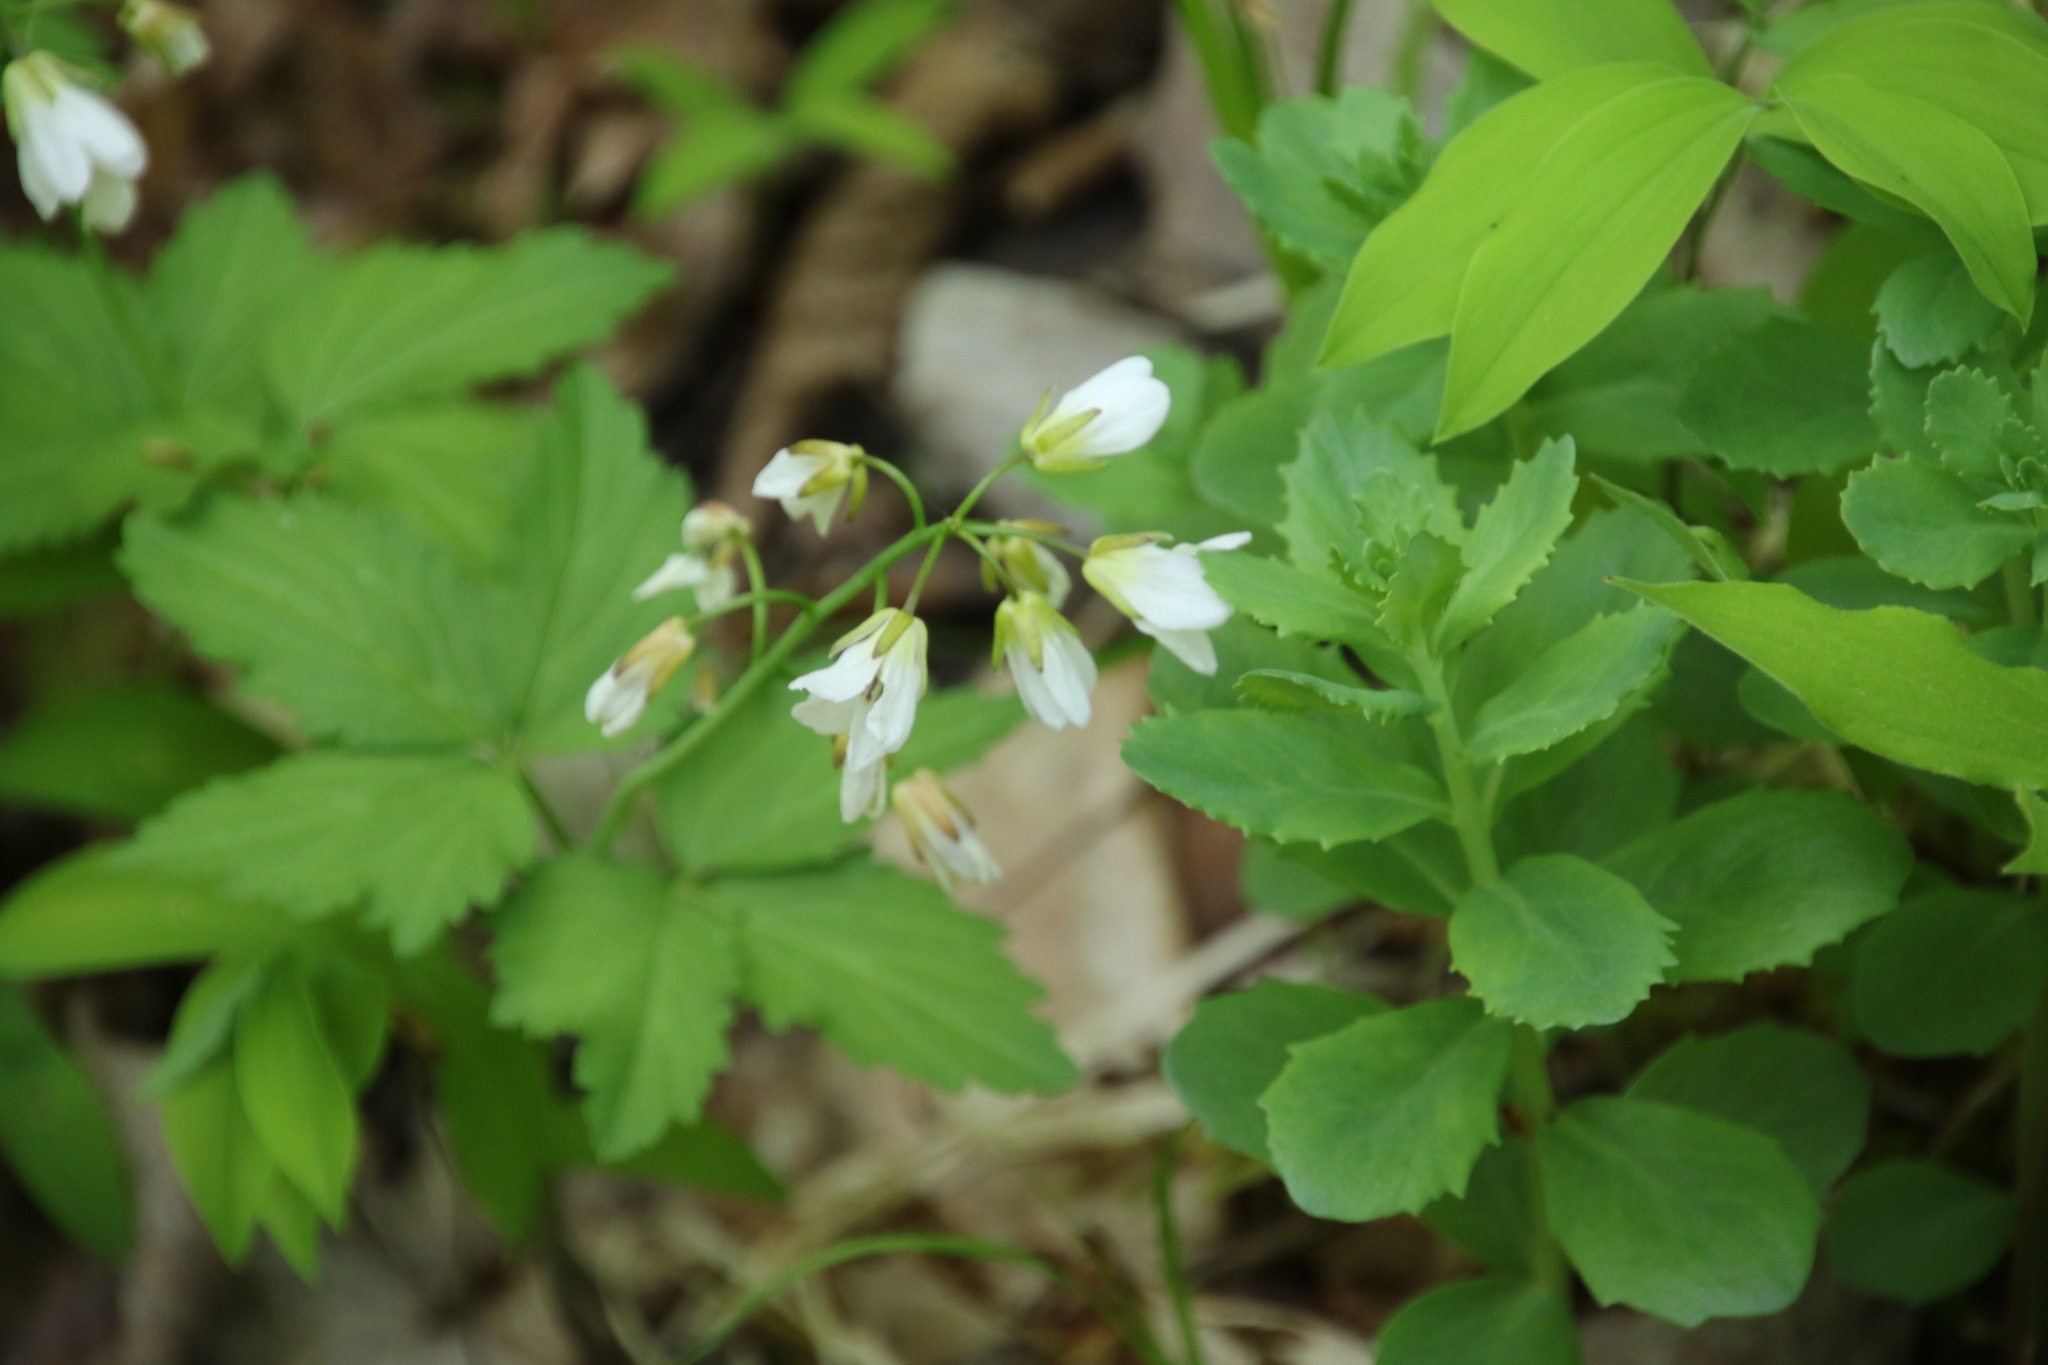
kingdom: Plantae
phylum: Tracheophyta
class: Magnoliopsida
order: Brassicales
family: Brassicaceae
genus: Cardamine
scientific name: Cardamine diphylla
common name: Broad-leaved toothwort
